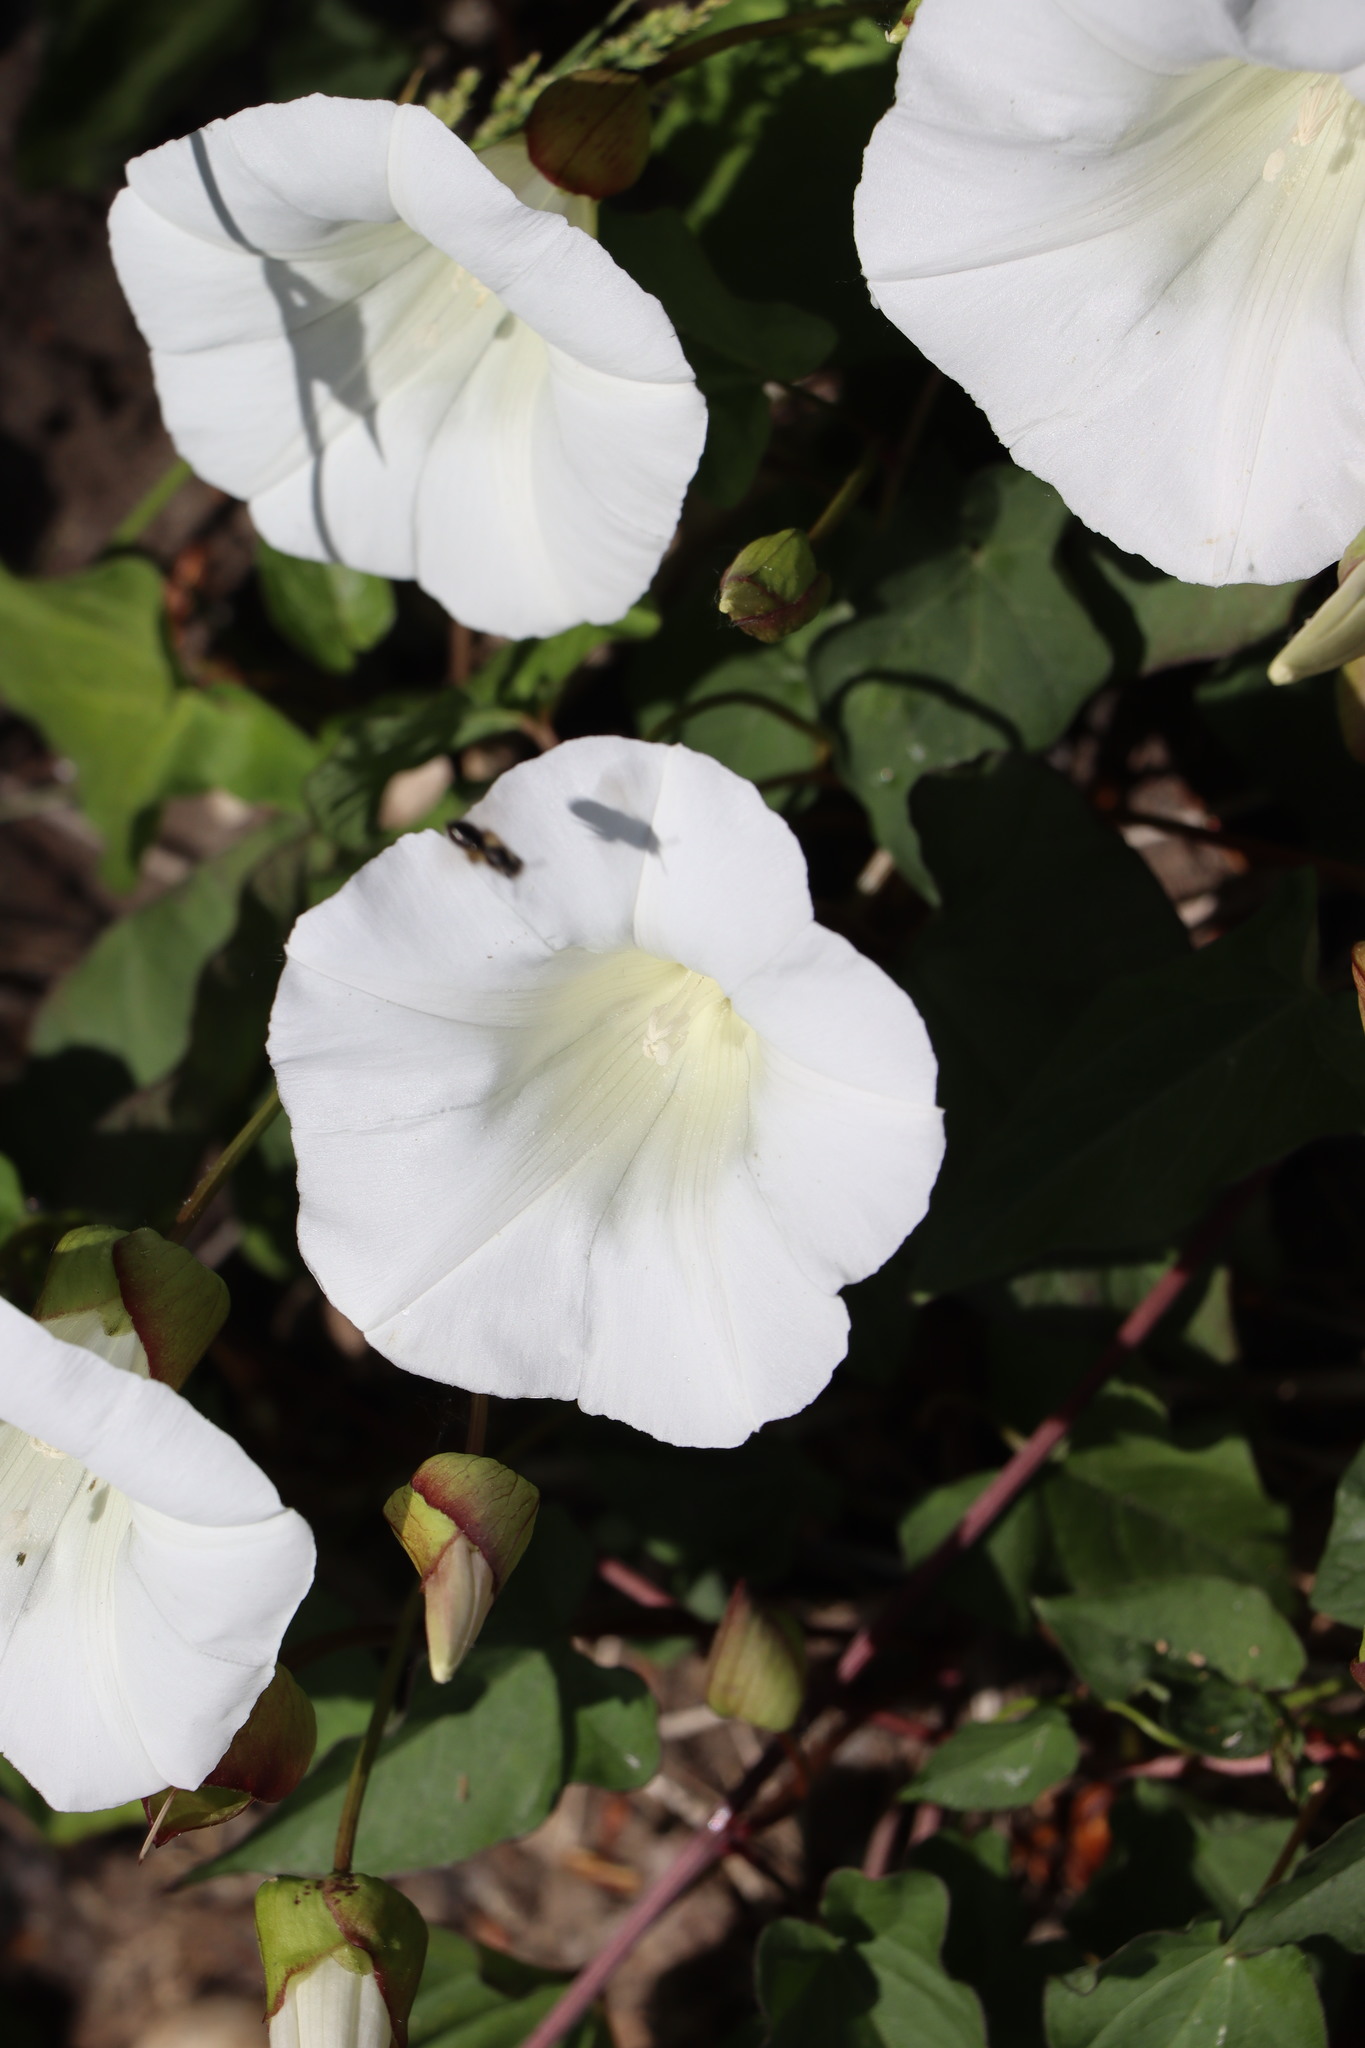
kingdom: Plantae
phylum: Tracheophyta
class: Magnoliopsida
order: Solanales
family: Convolvulaceae
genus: Calystegia
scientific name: Calystegia silvatica
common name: Large bindweed
